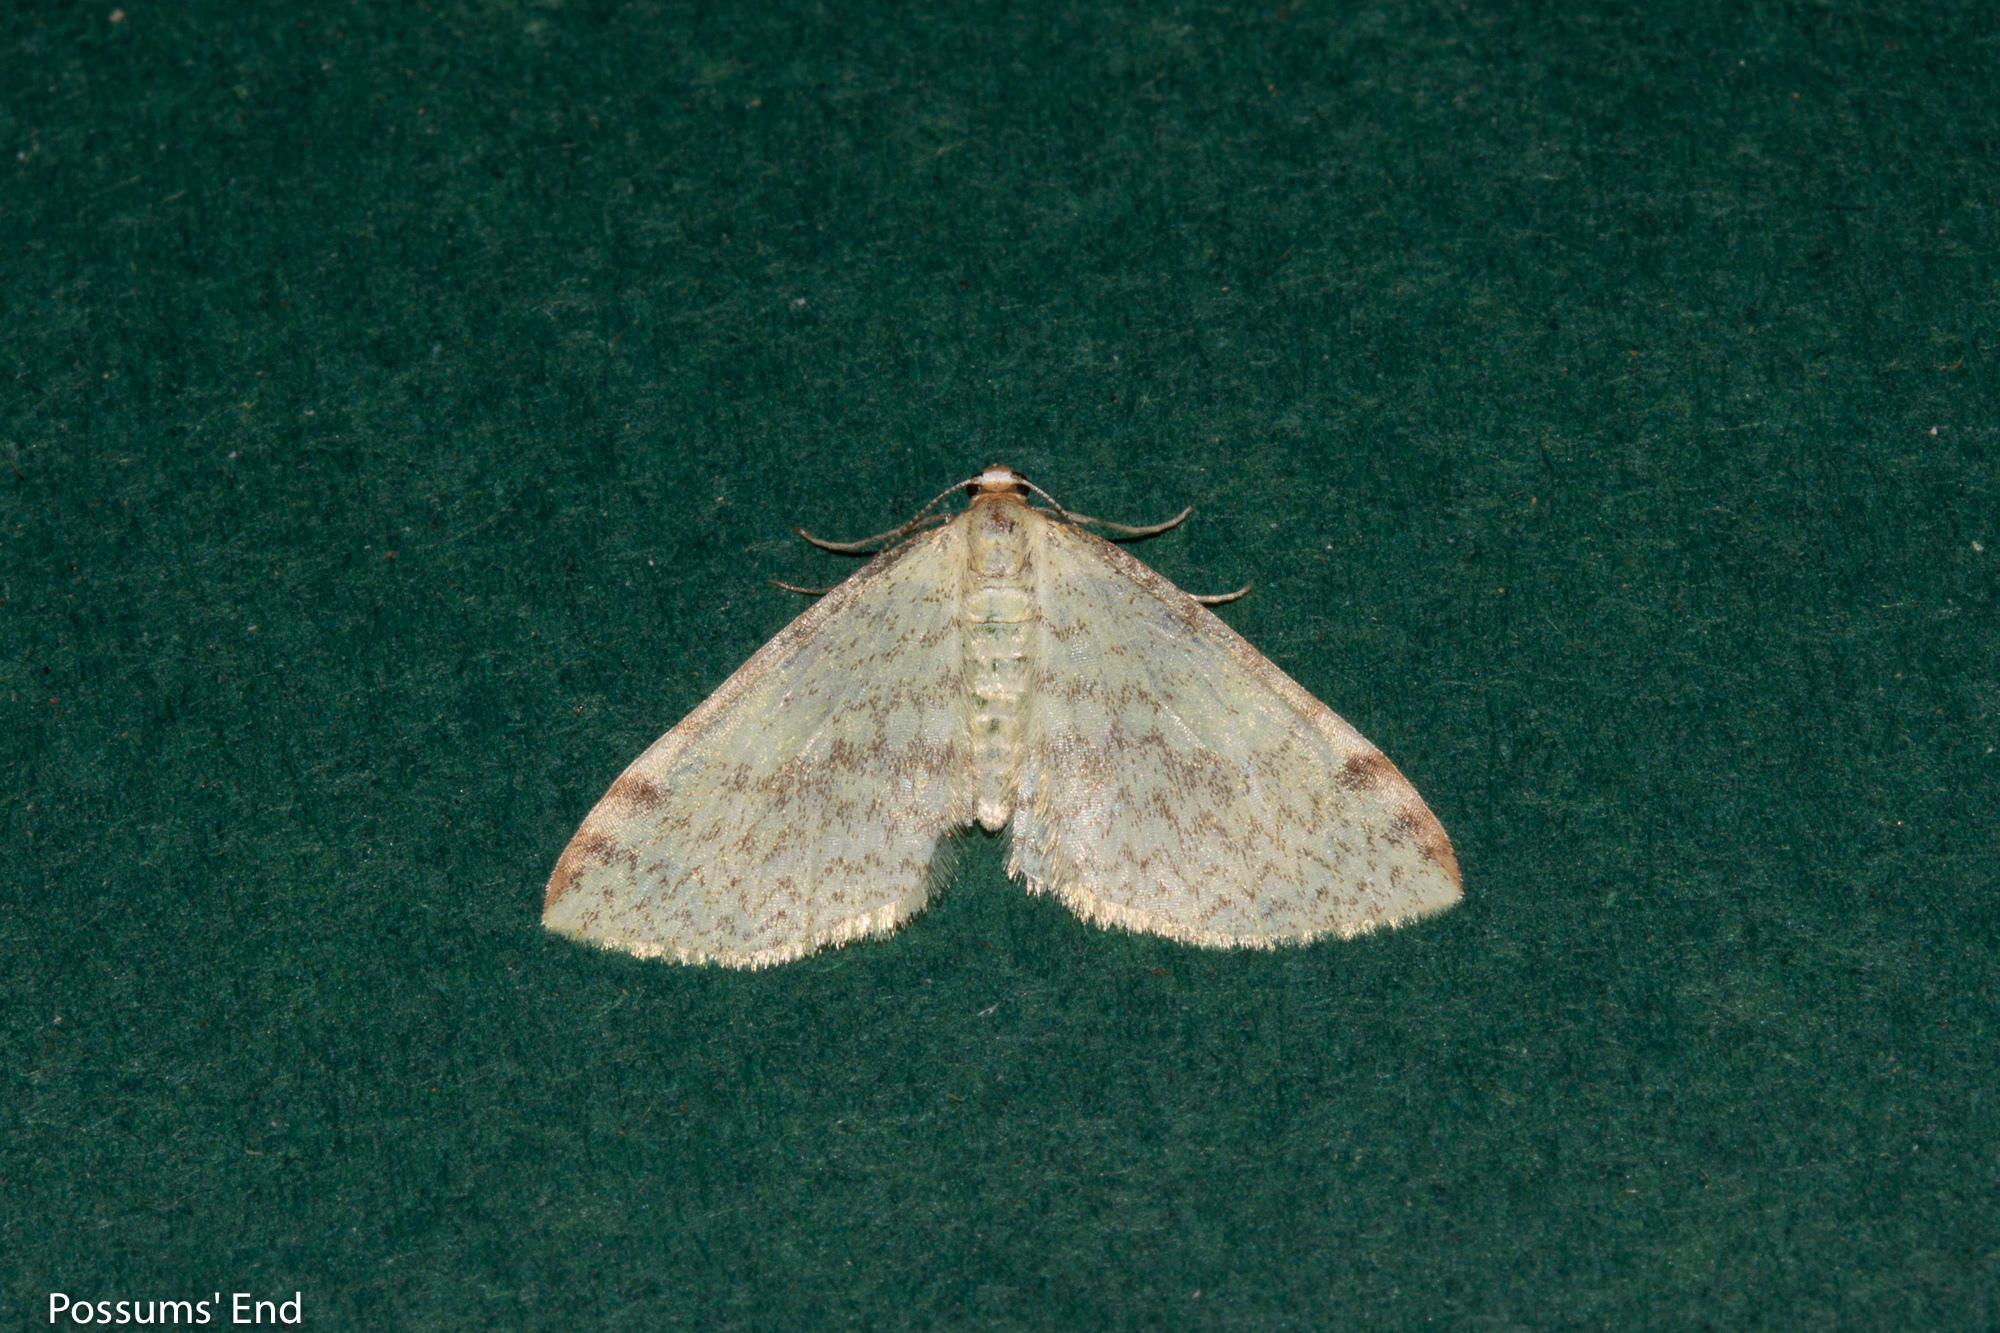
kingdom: Animalia
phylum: Arthropoda
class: Insecta
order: Lepidoptera
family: Geometridae
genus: Epiphryne
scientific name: Epiphryne undosata
